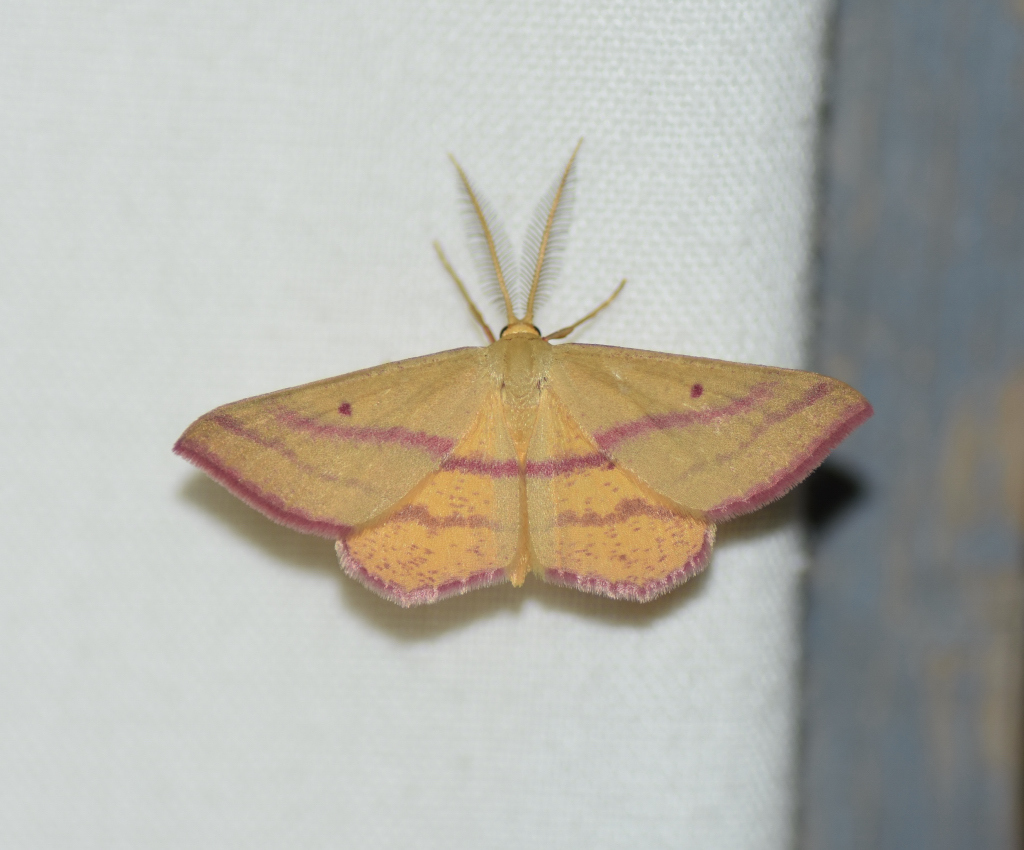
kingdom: Animalia
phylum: Arthropoda
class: Insecta
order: Lepidoptera
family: Geometridae
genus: Haematopis
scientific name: Haematopis grataria
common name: Chickweed geometer
